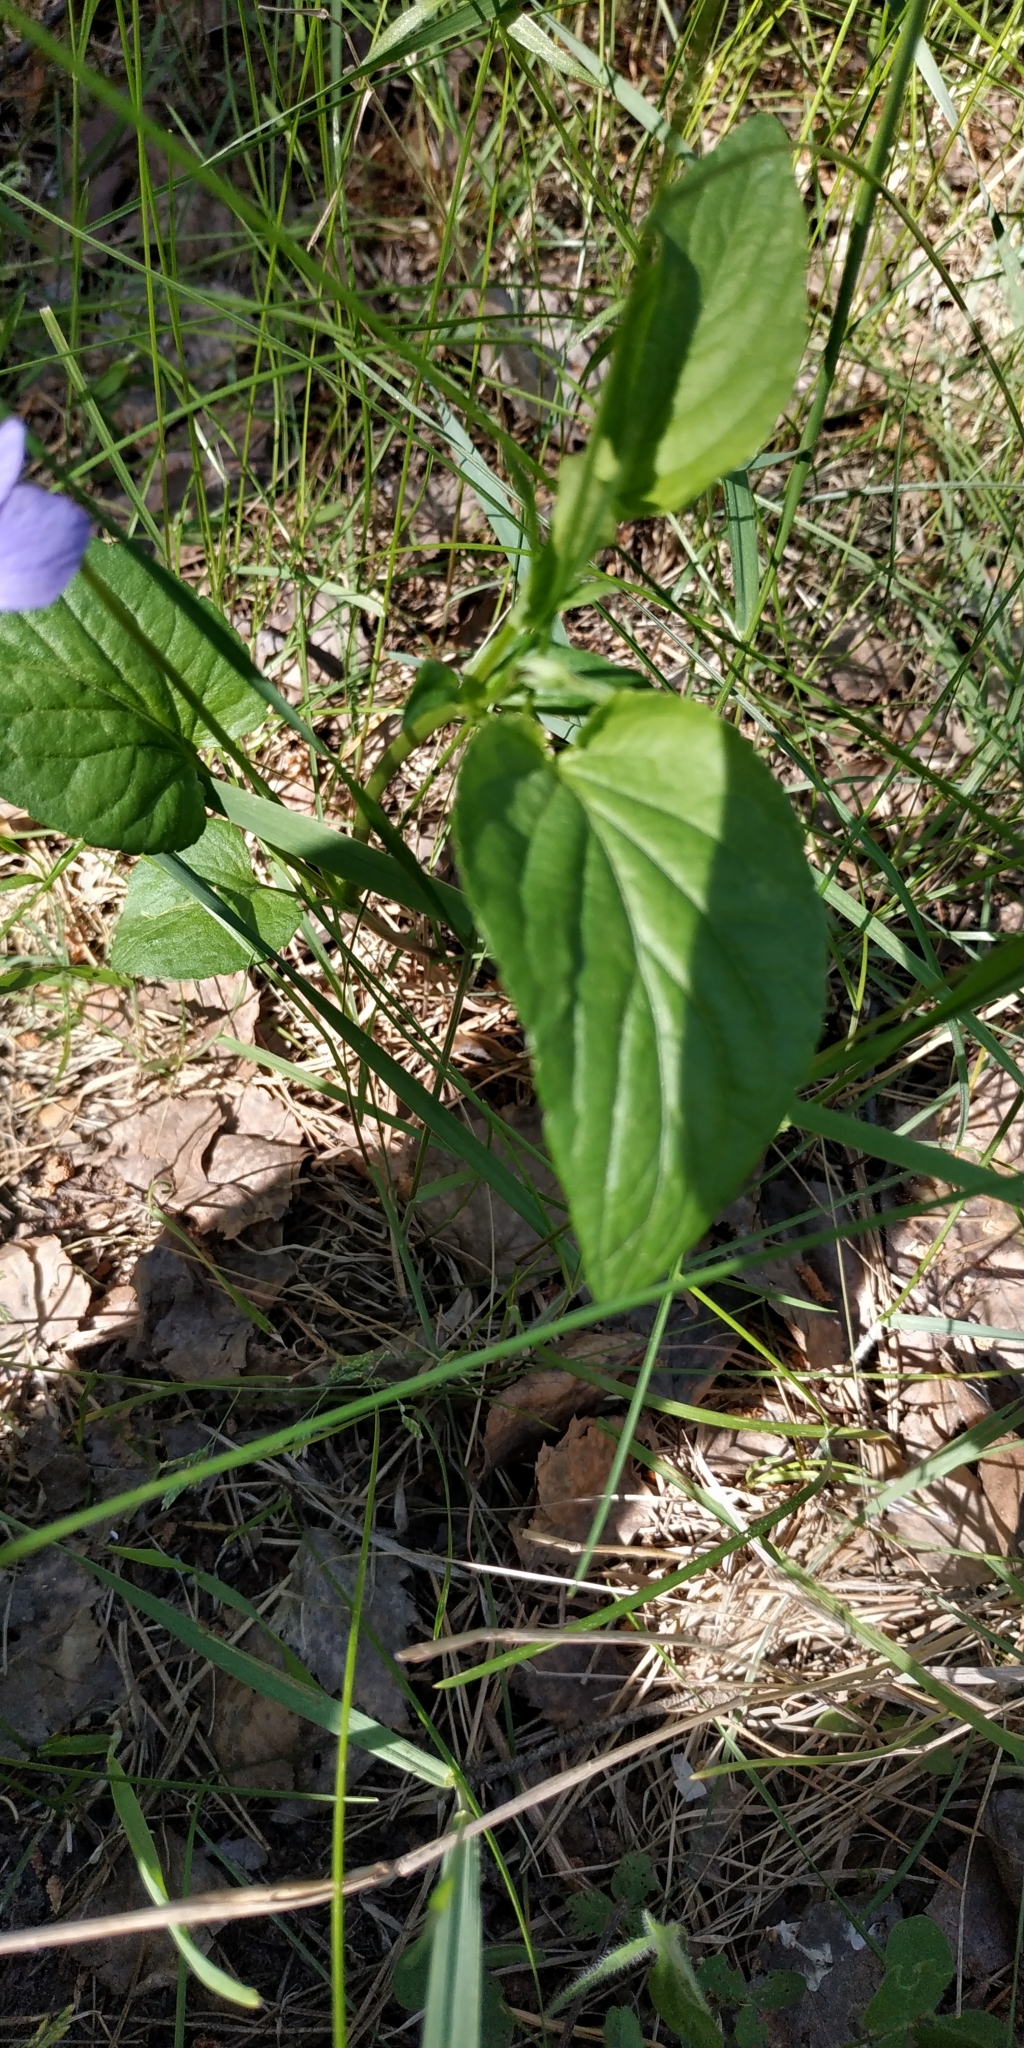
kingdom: Plantae
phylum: Tracheophyta
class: Magnoliopsida
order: Malpighiales
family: Violaceae
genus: Viola
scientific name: Viola
